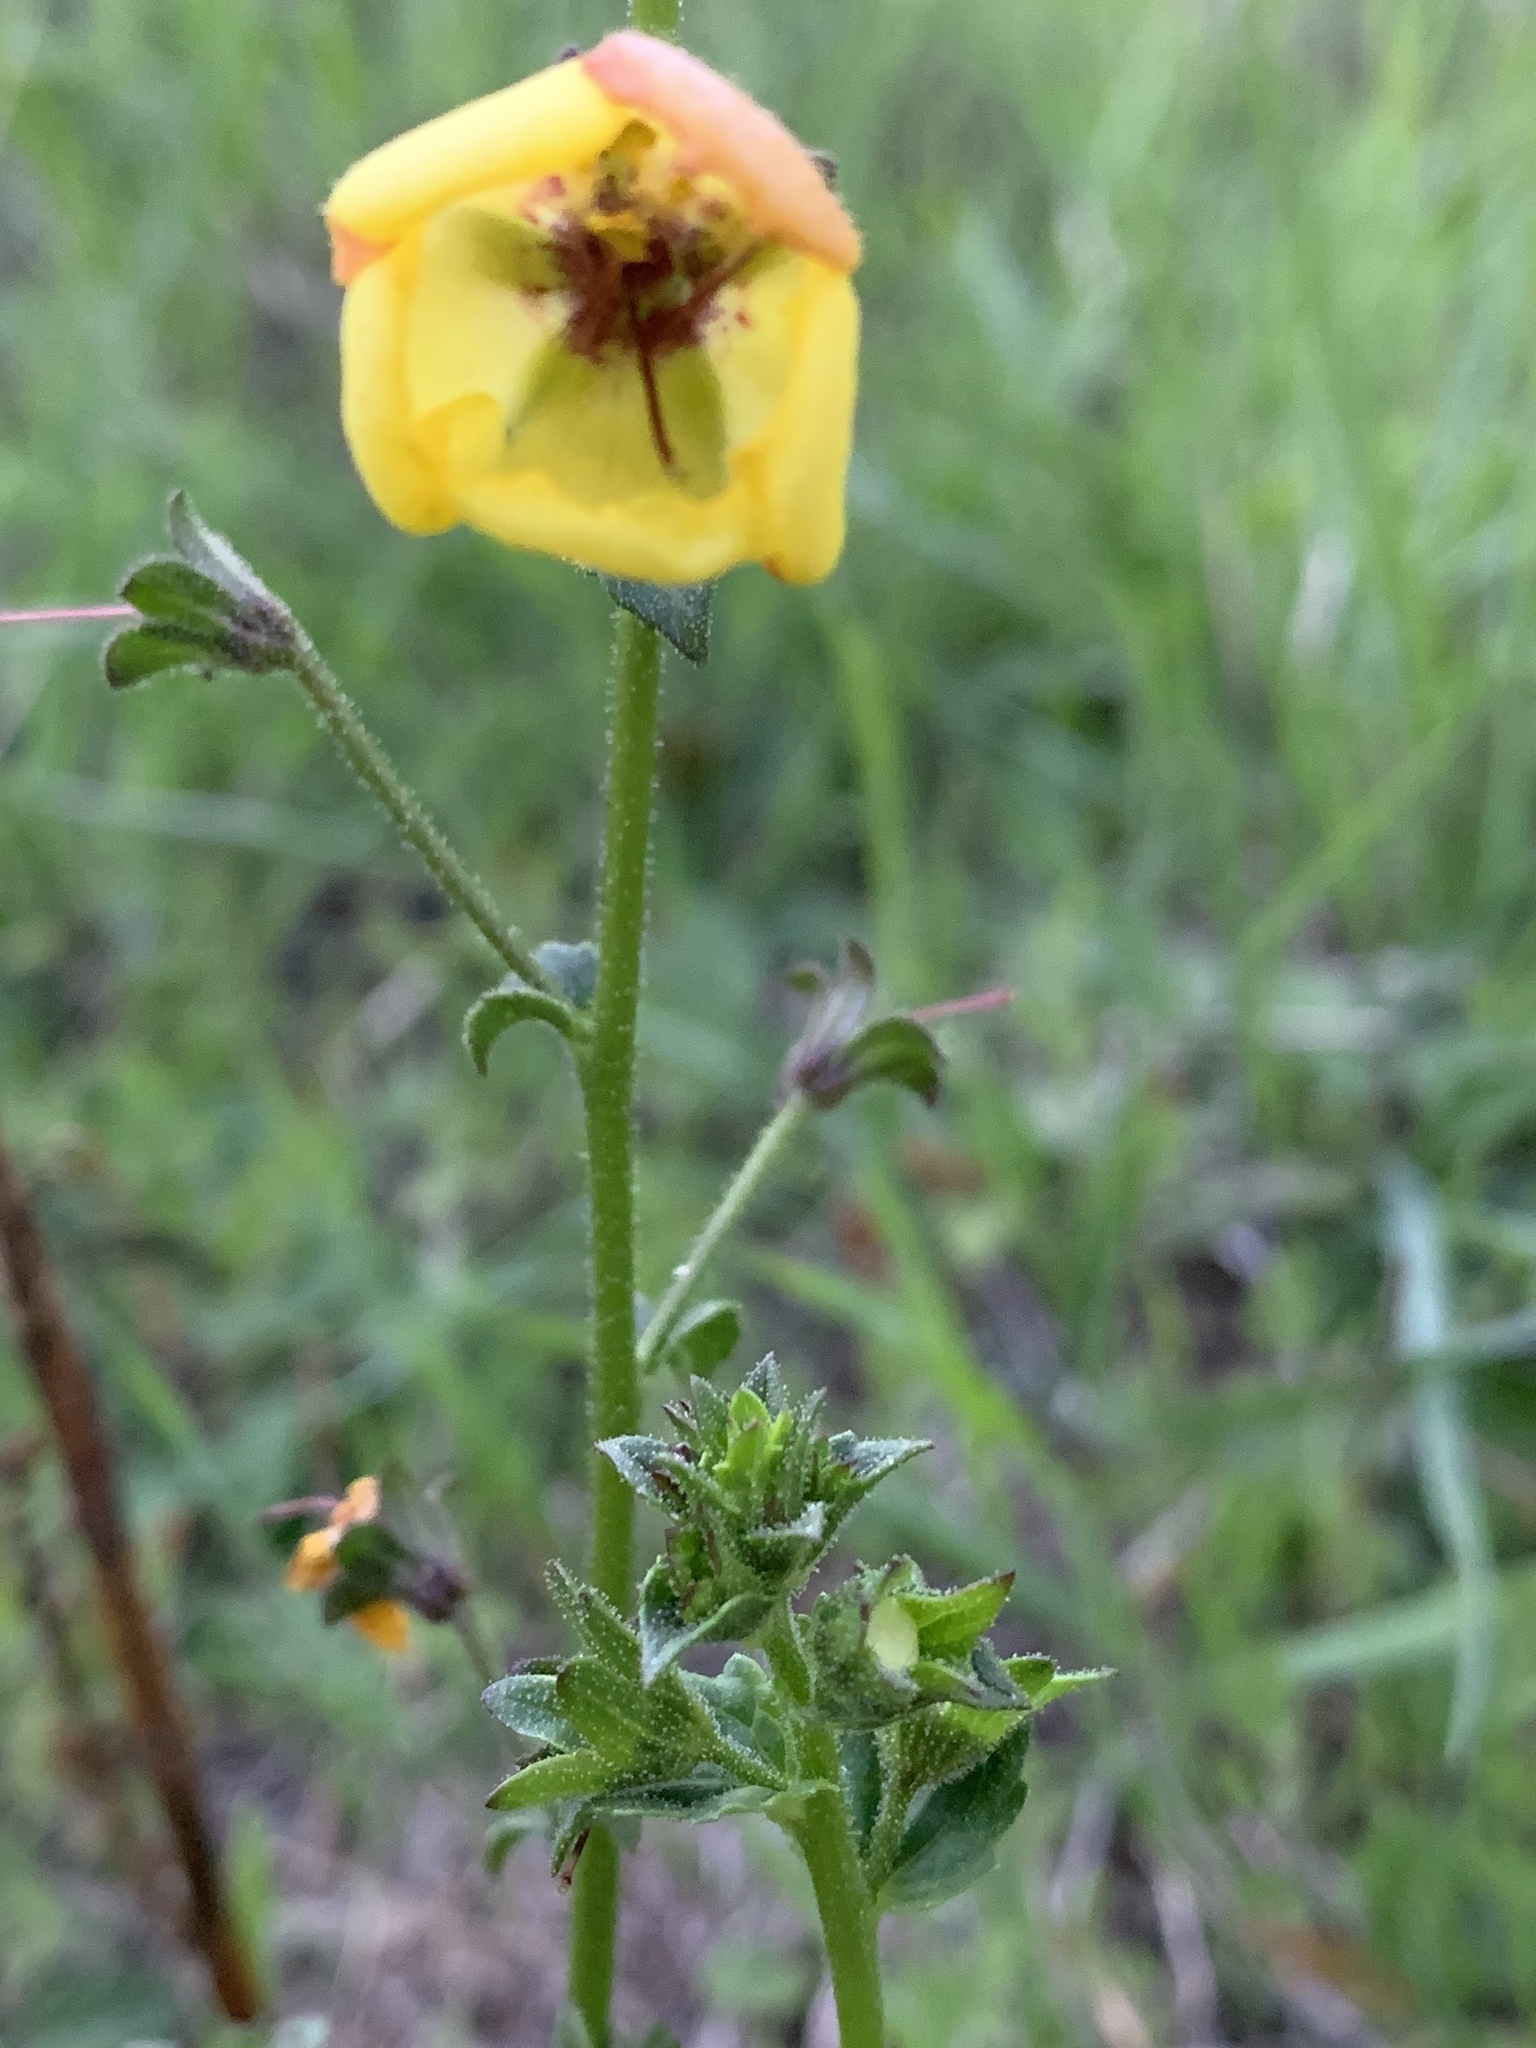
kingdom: Plantae
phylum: Tracheophyta
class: Magnoliopsida
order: Lamiales
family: Scrophulariaceae
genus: Verbascum
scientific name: Verbascum blattaria
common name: Moth mullein
